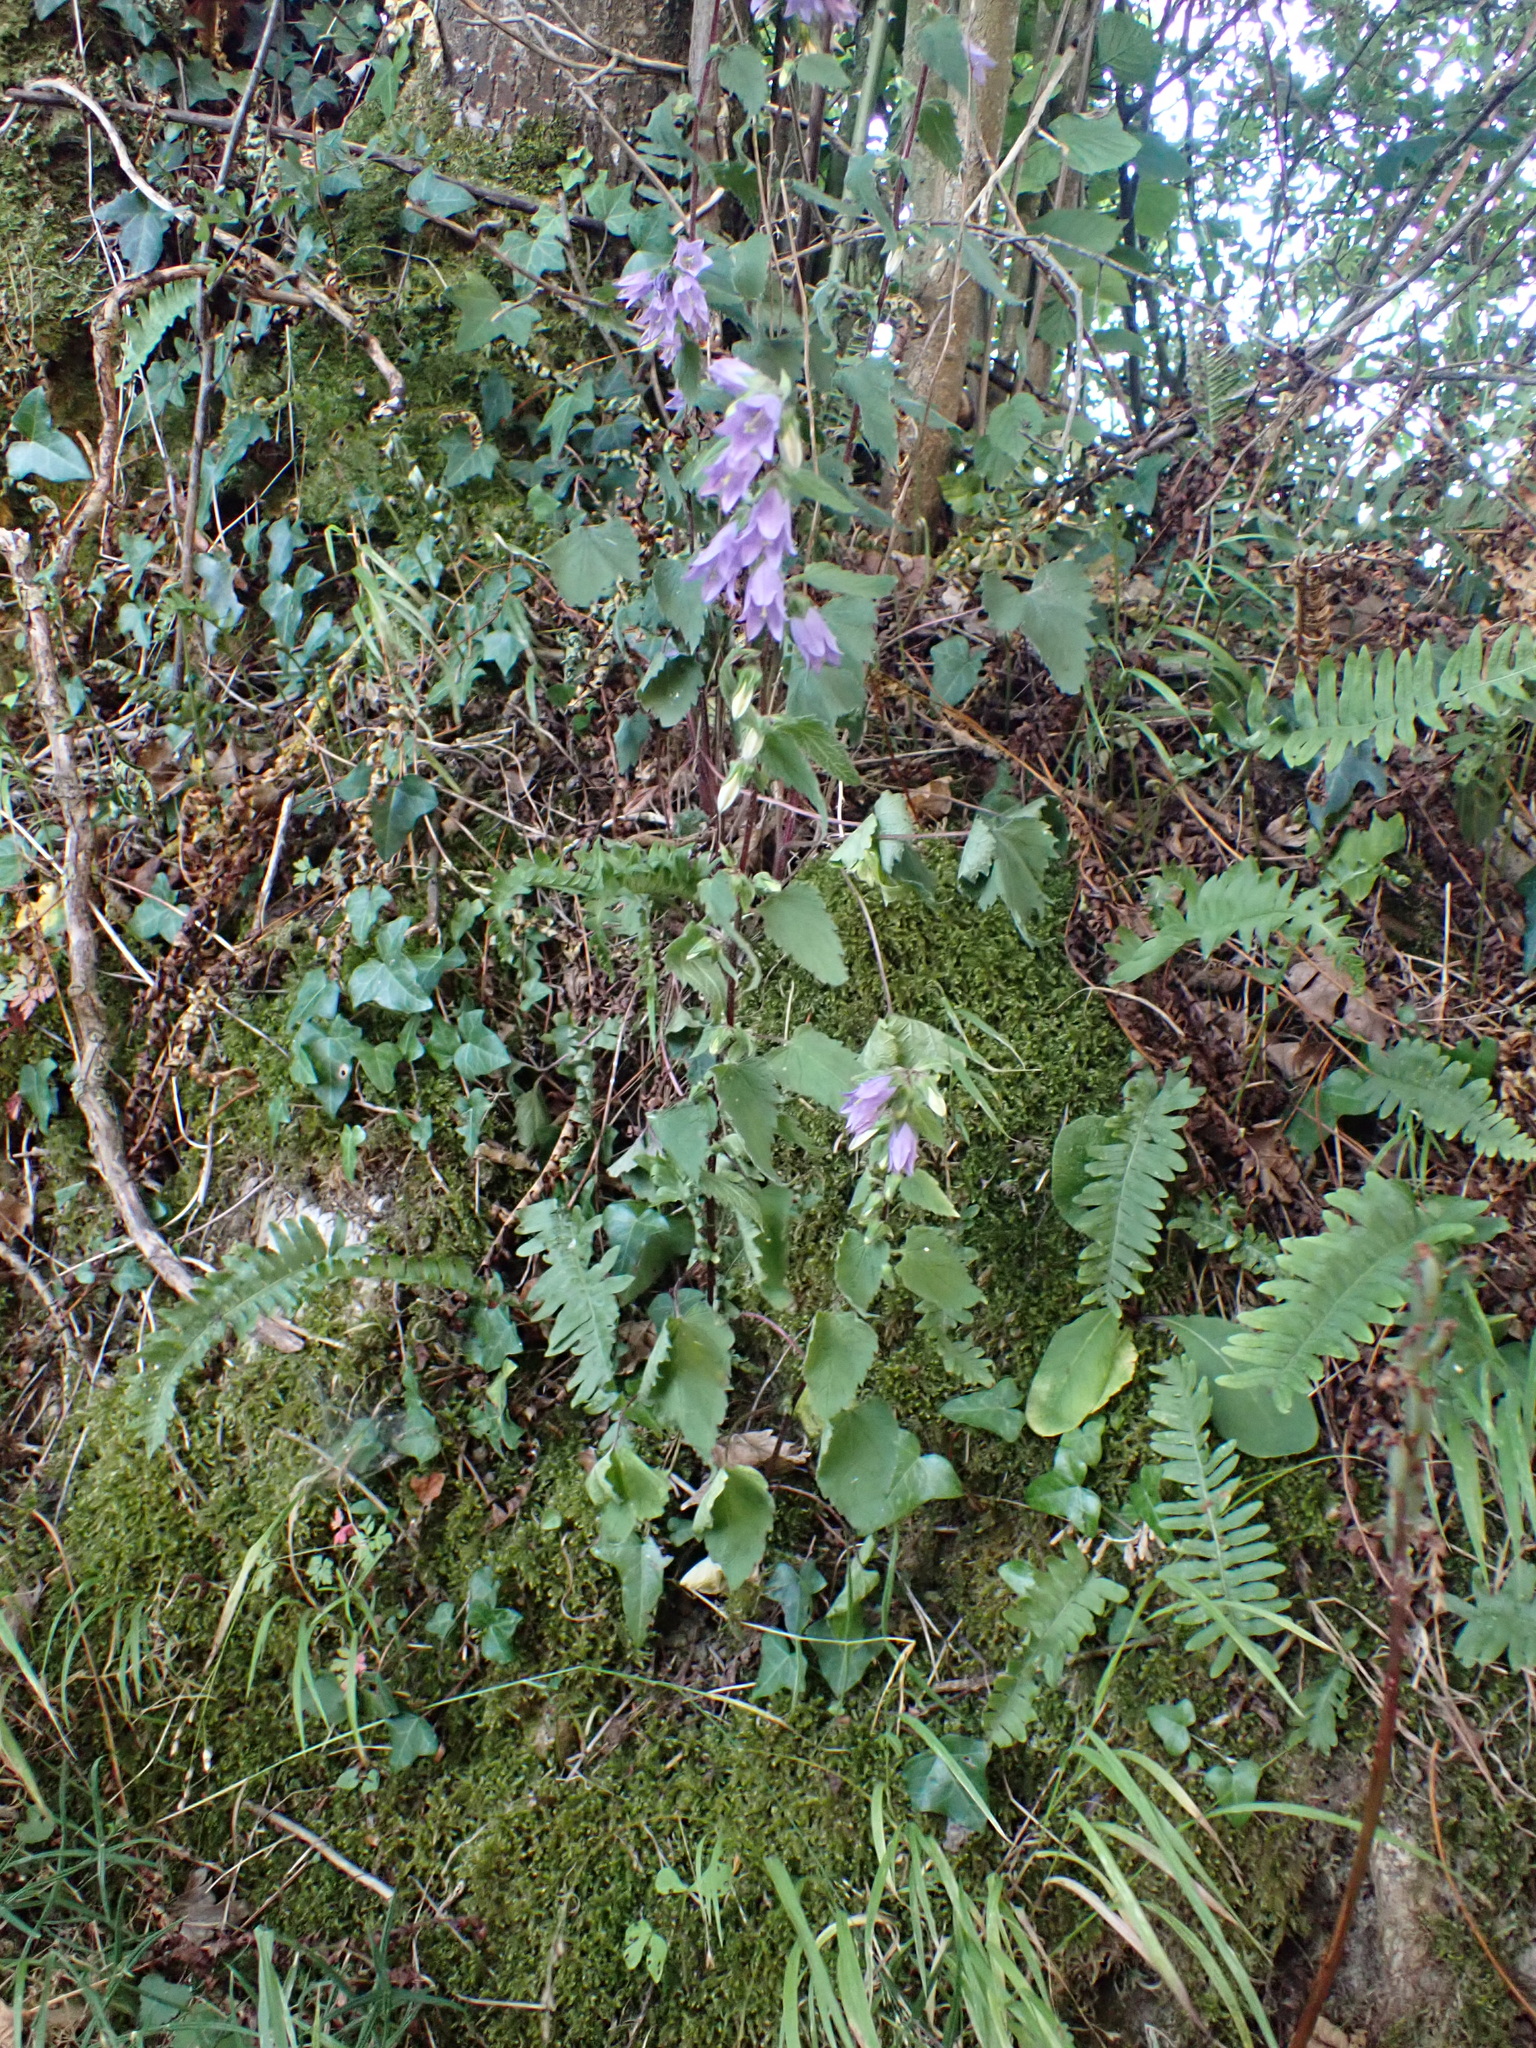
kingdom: Plantae
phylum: Tracheophyta
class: Magnoliopsida
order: Asterales
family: Campanulaceae
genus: Campanula
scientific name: Campanula trachelium
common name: Nettle-leaved bellflower
